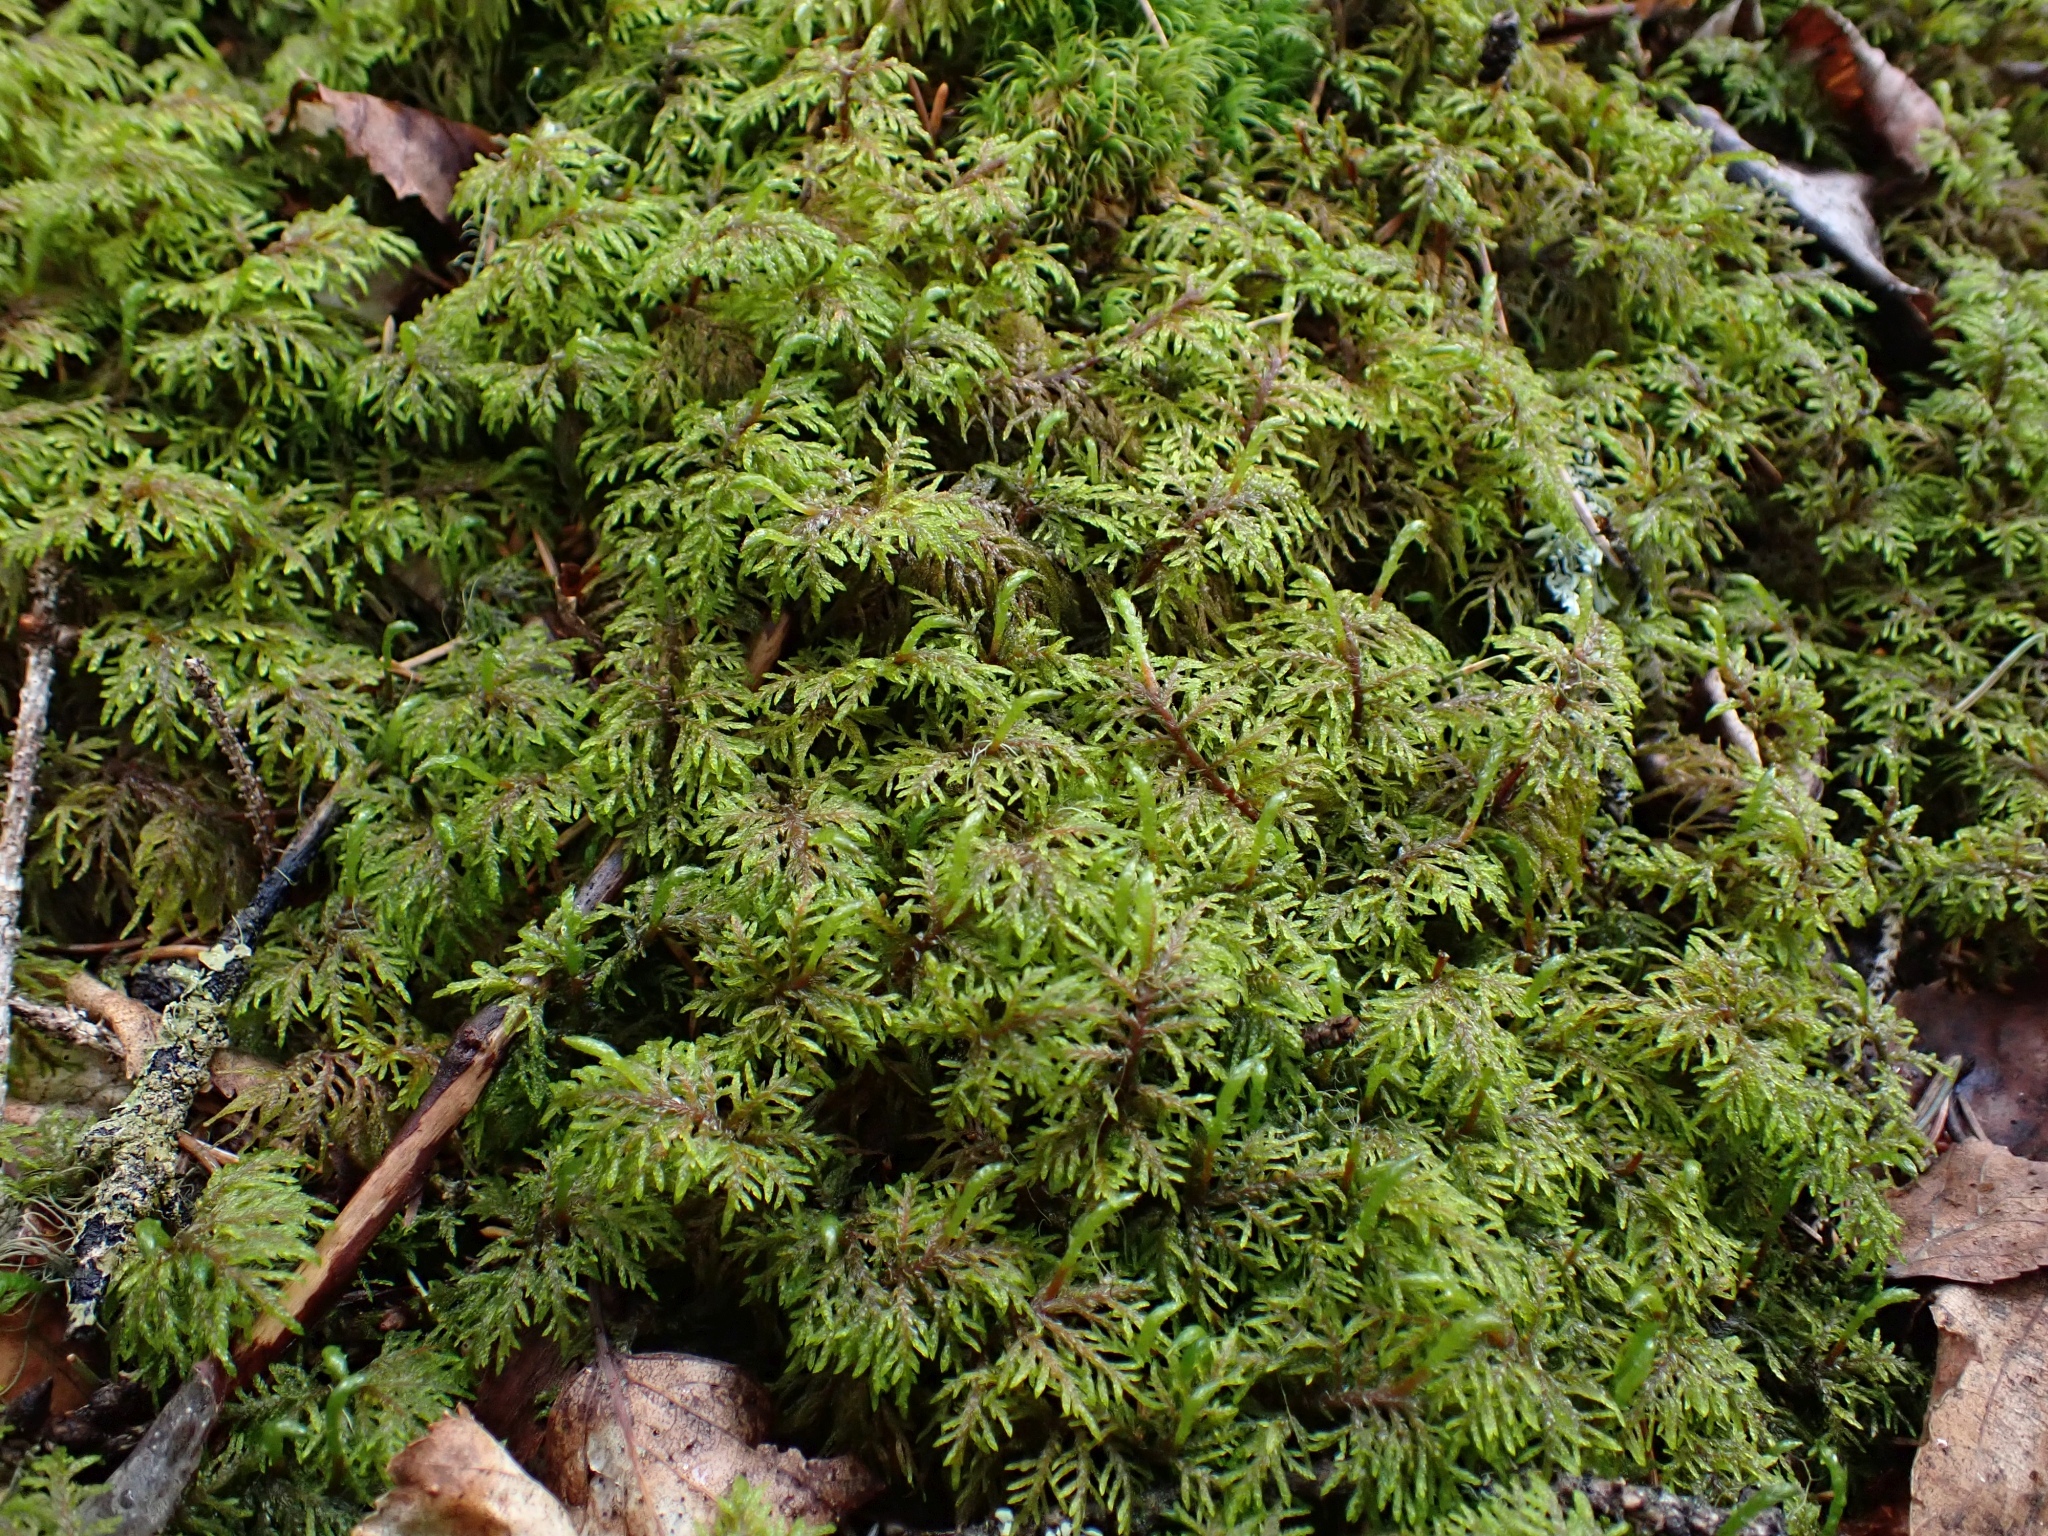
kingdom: Plantae
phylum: Bryophyta
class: Bryopsida
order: Hypnales
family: Hylocomiaceae
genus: Hylocomium
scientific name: Hylocomium splendens
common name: Stairstep moss
